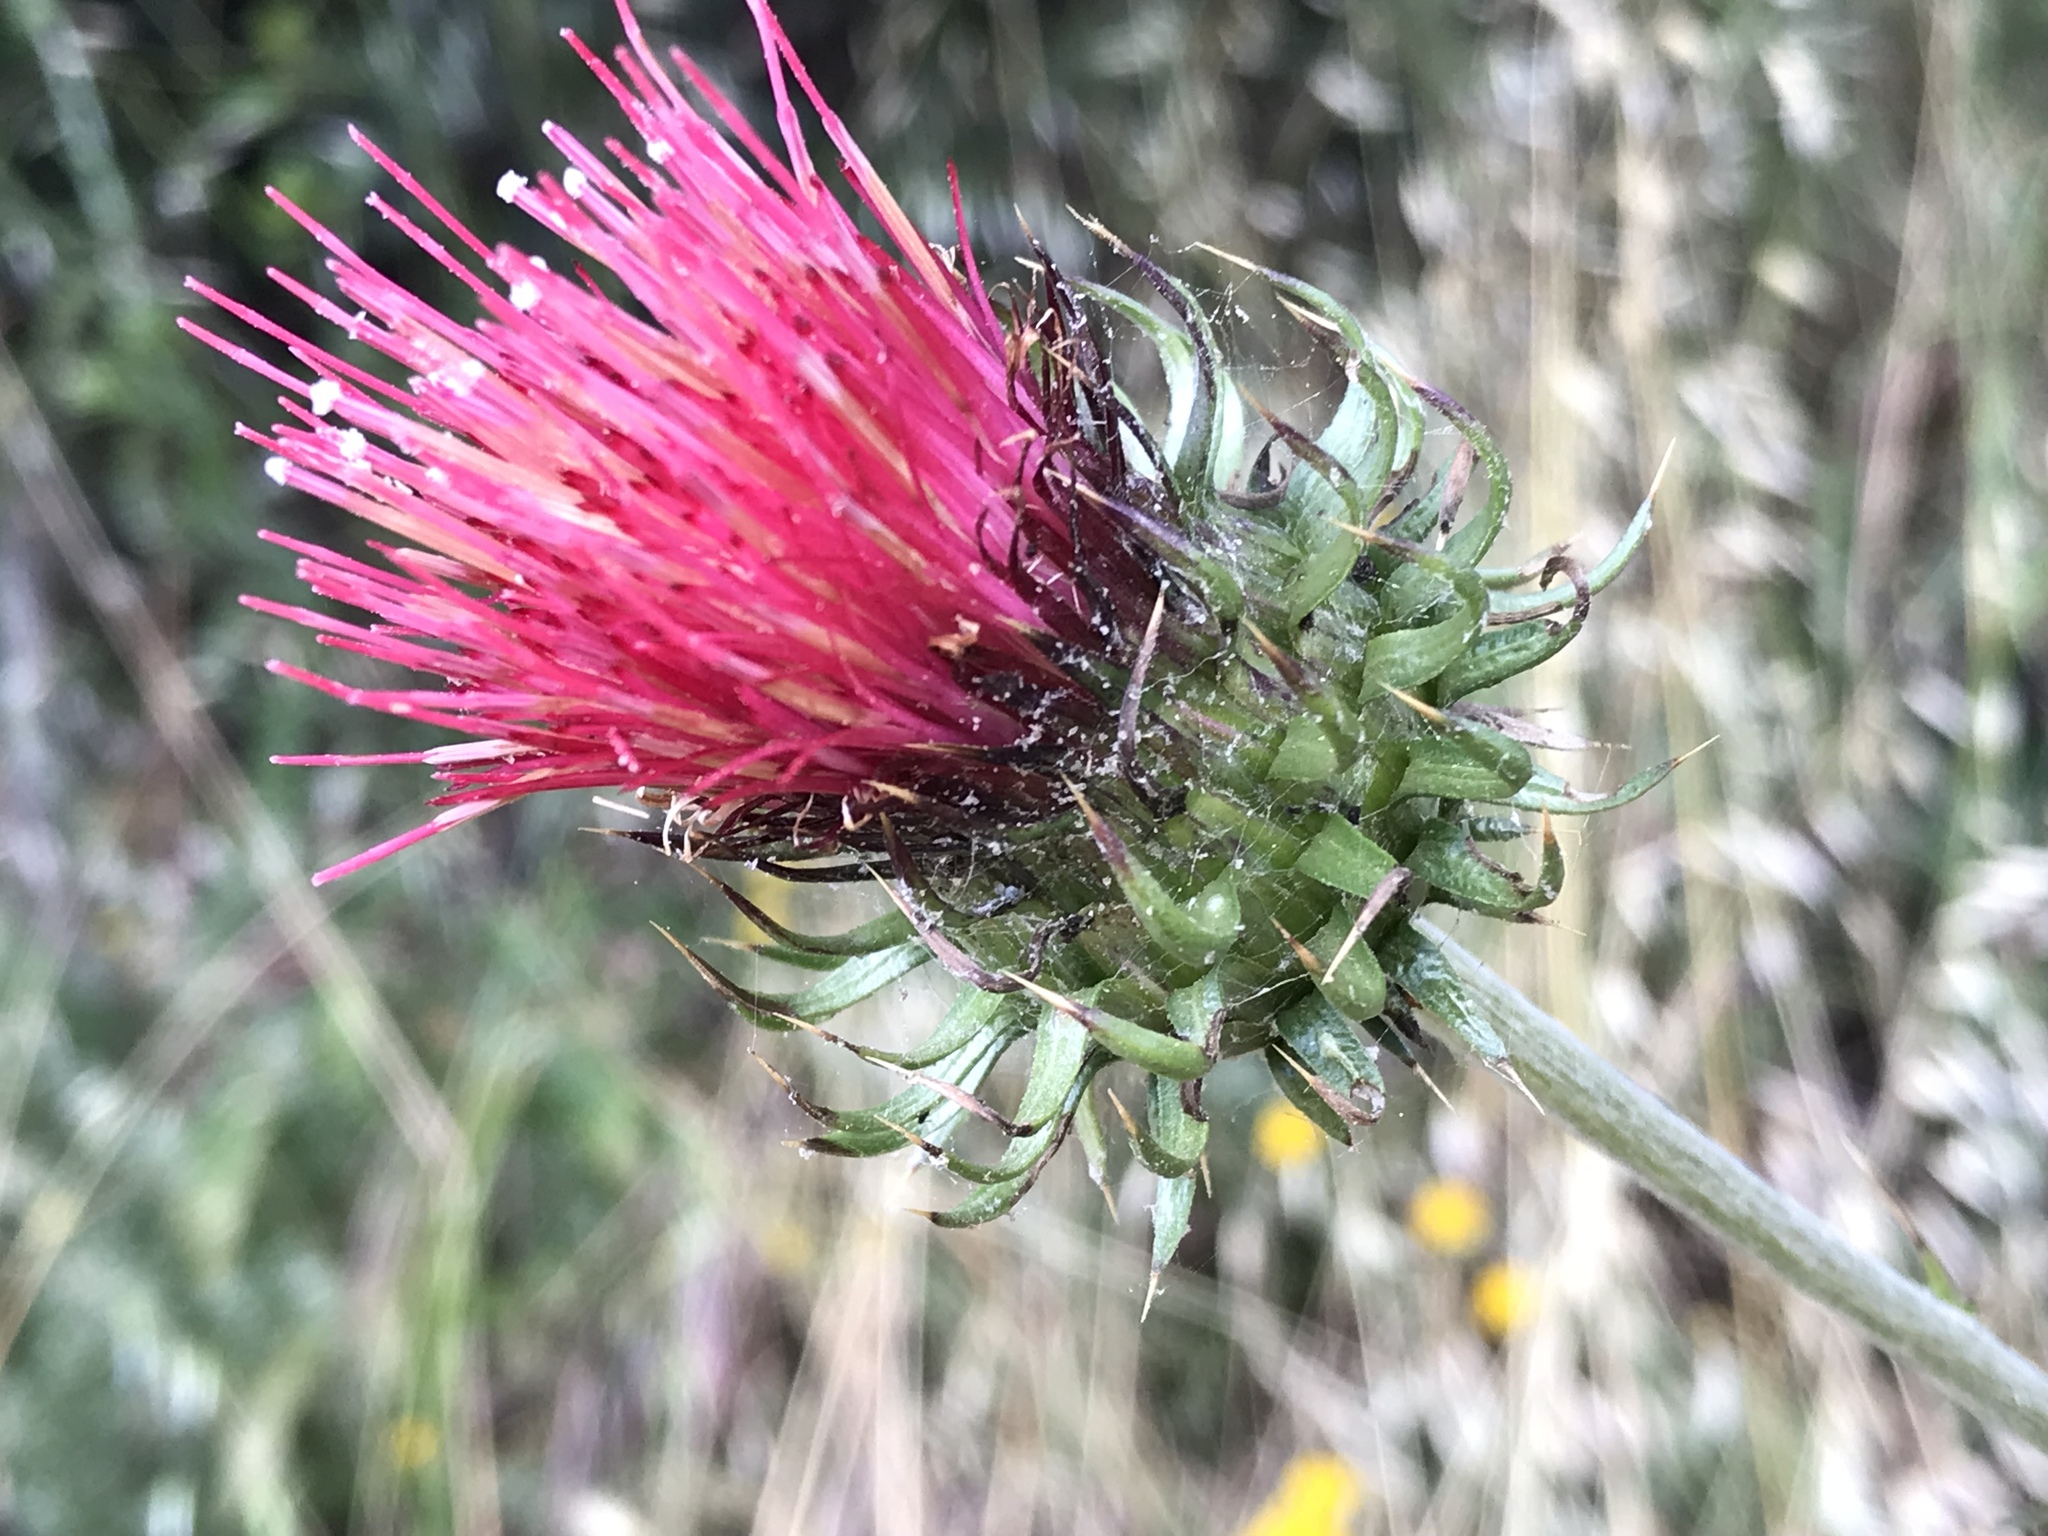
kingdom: Plantae
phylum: Tracheophyta
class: Magnoliopsida
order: Asterales
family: Asteraceae
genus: Cirsium
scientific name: Cirsium occidentale
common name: Western thistle
